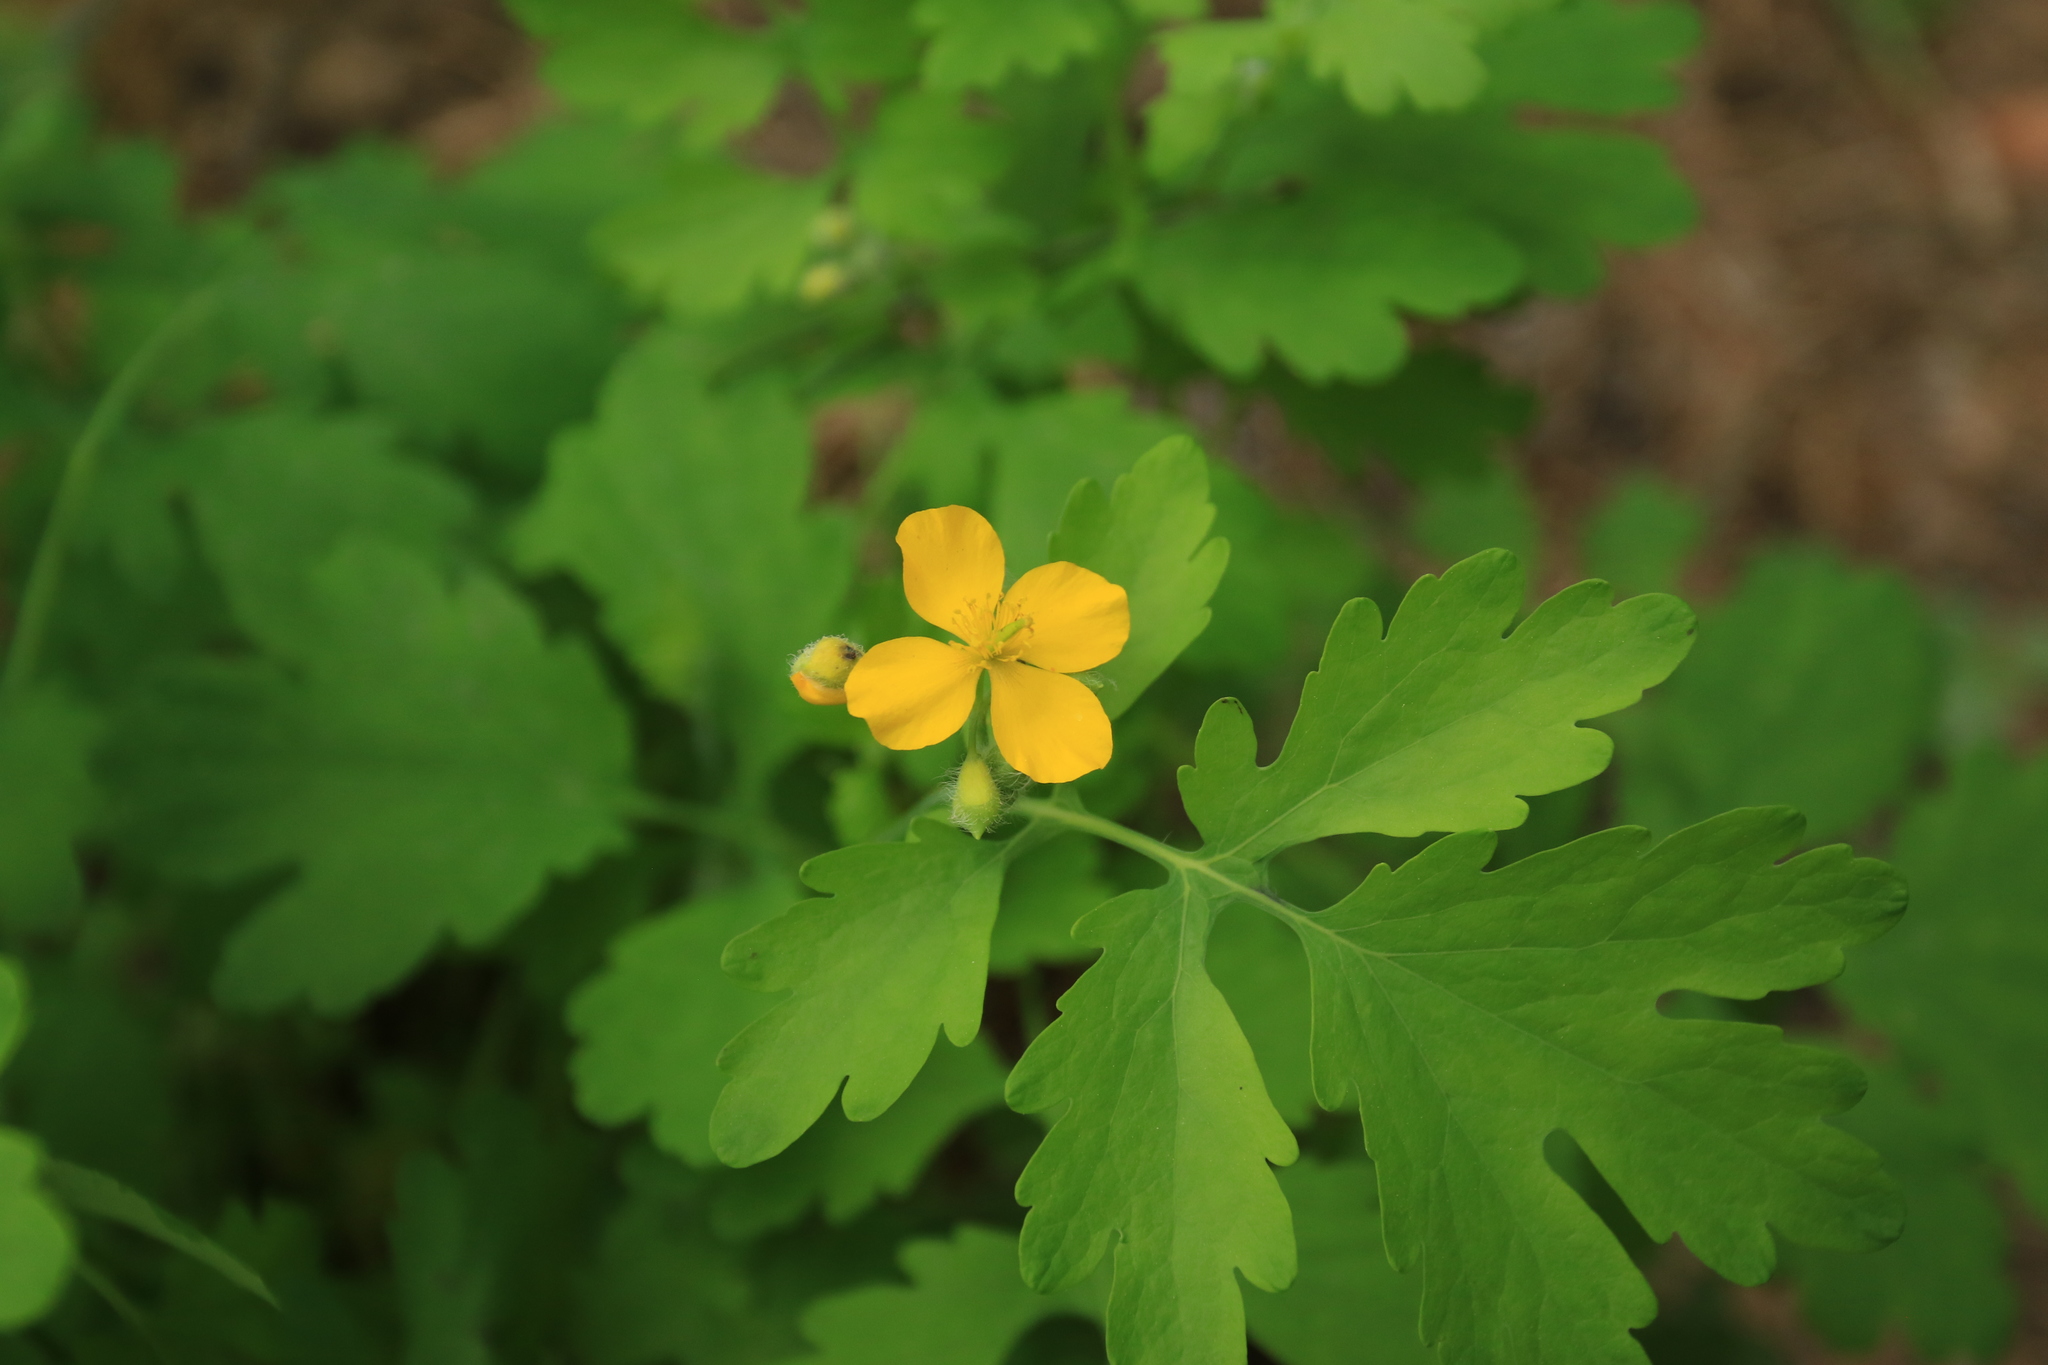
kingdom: Plantae
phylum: Tracheophyta
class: Magnoliopsida
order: Ranunculales
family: Papaveraceae
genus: Chelidonium
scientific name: Chelidonium majus
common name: Greater celandine
